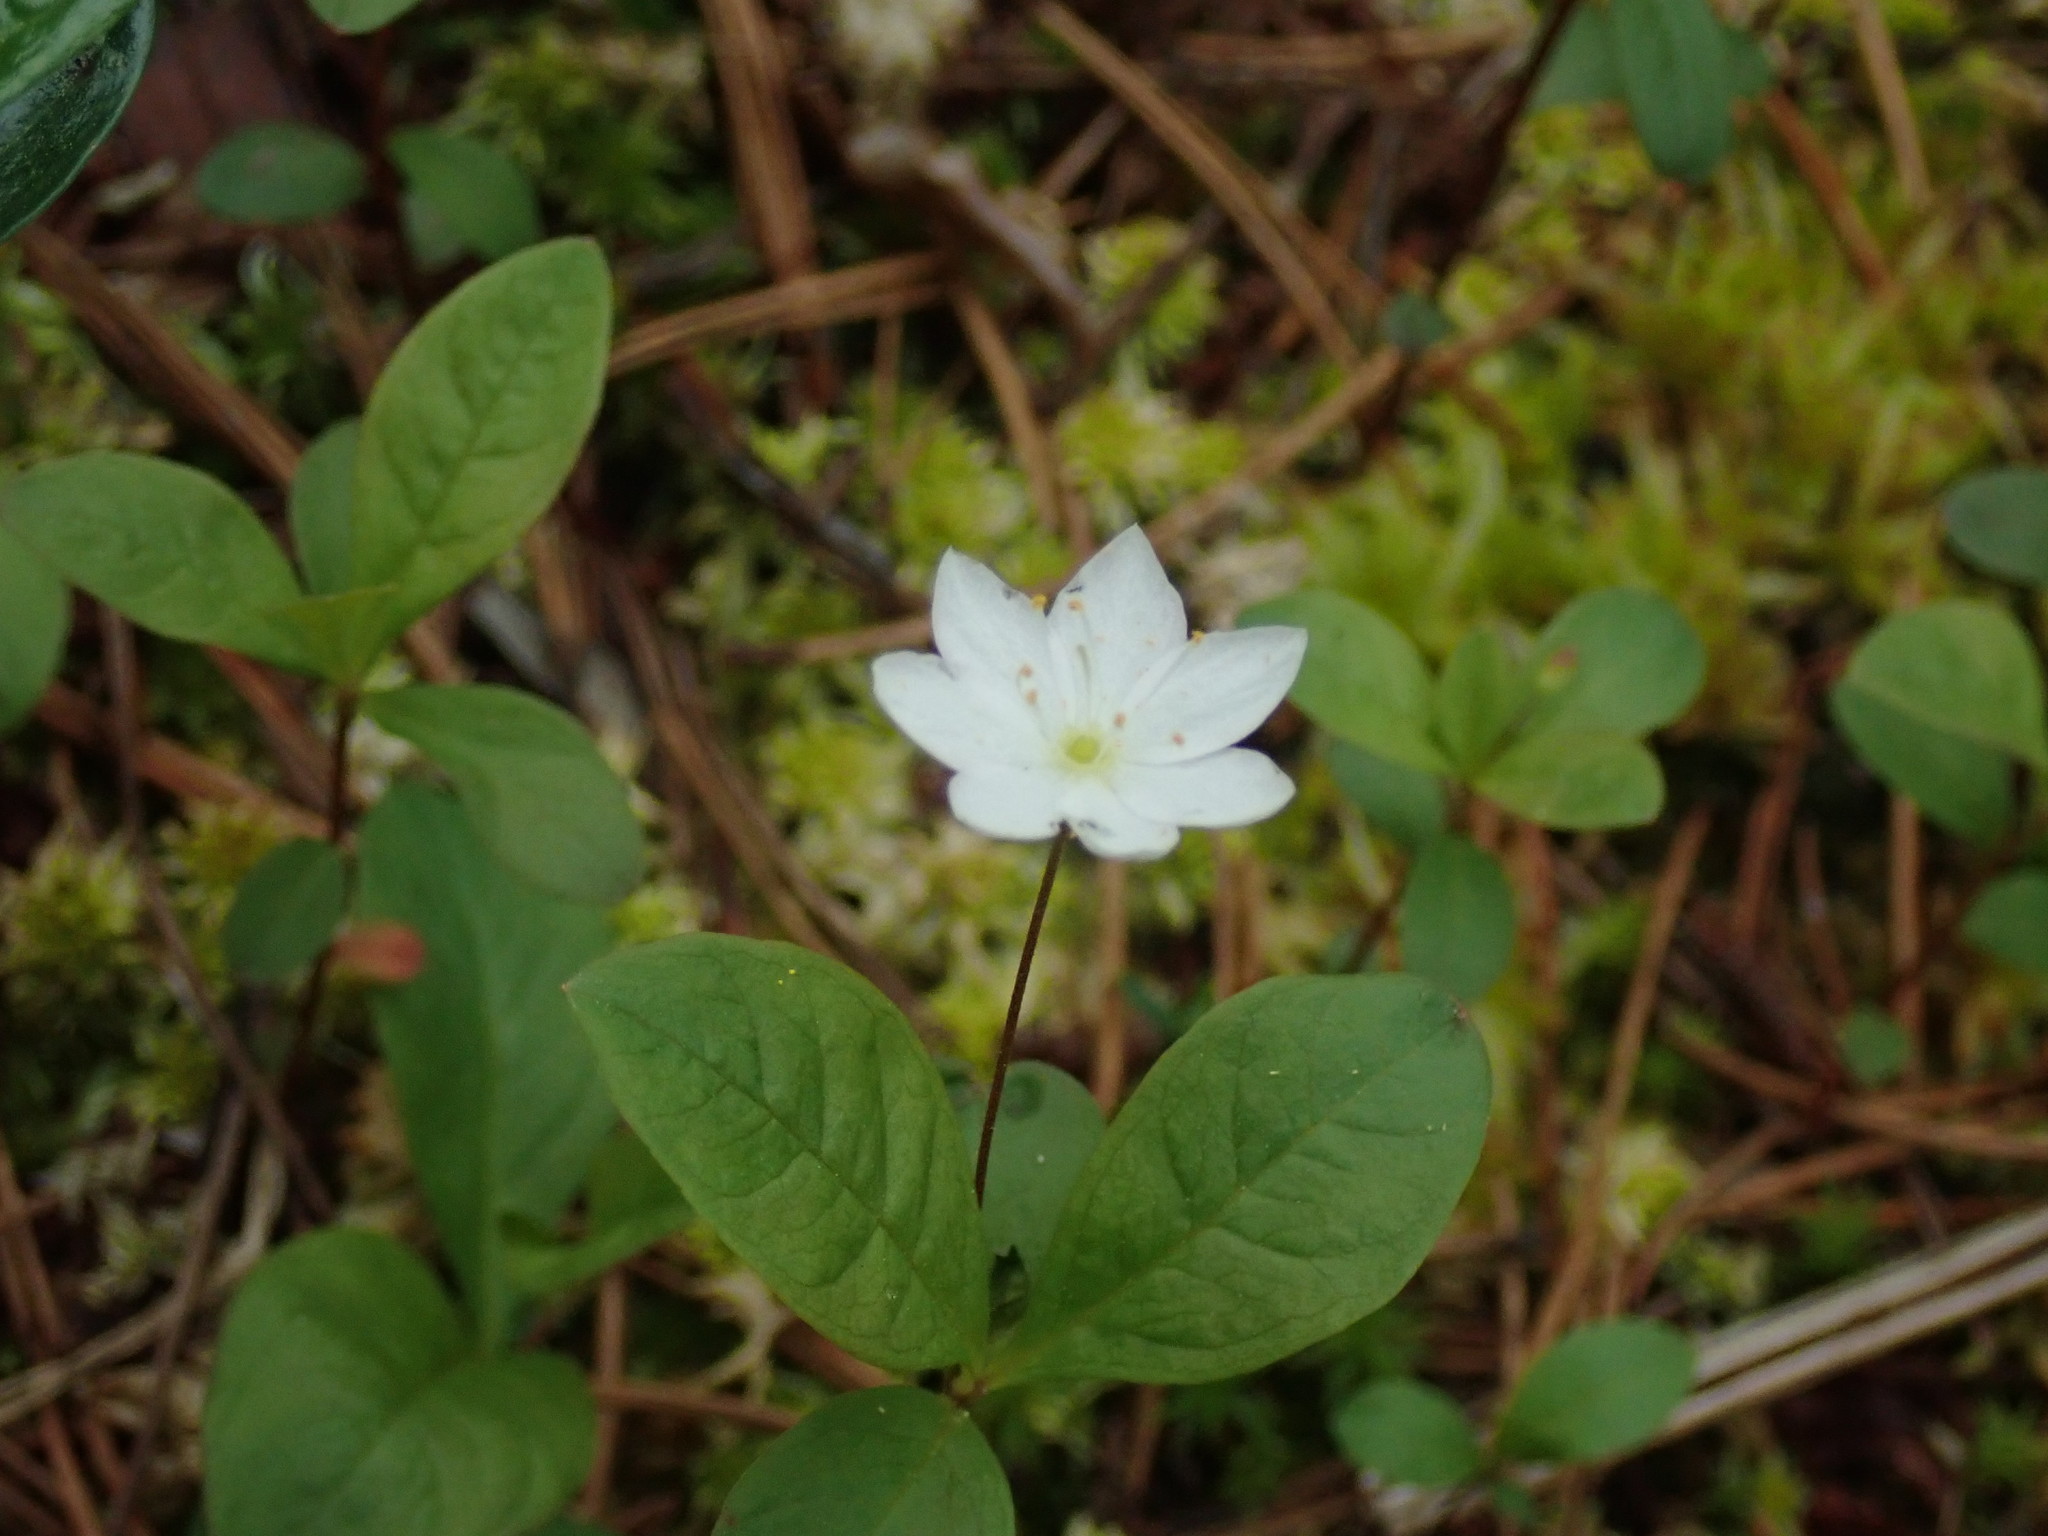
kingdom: Plantae
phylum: Tracheophyta
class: Magnoliopsida
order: Ericales
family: Primulaceae
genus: Lysimachia
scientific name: Lysimachia europaea
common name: Arctic starflower
